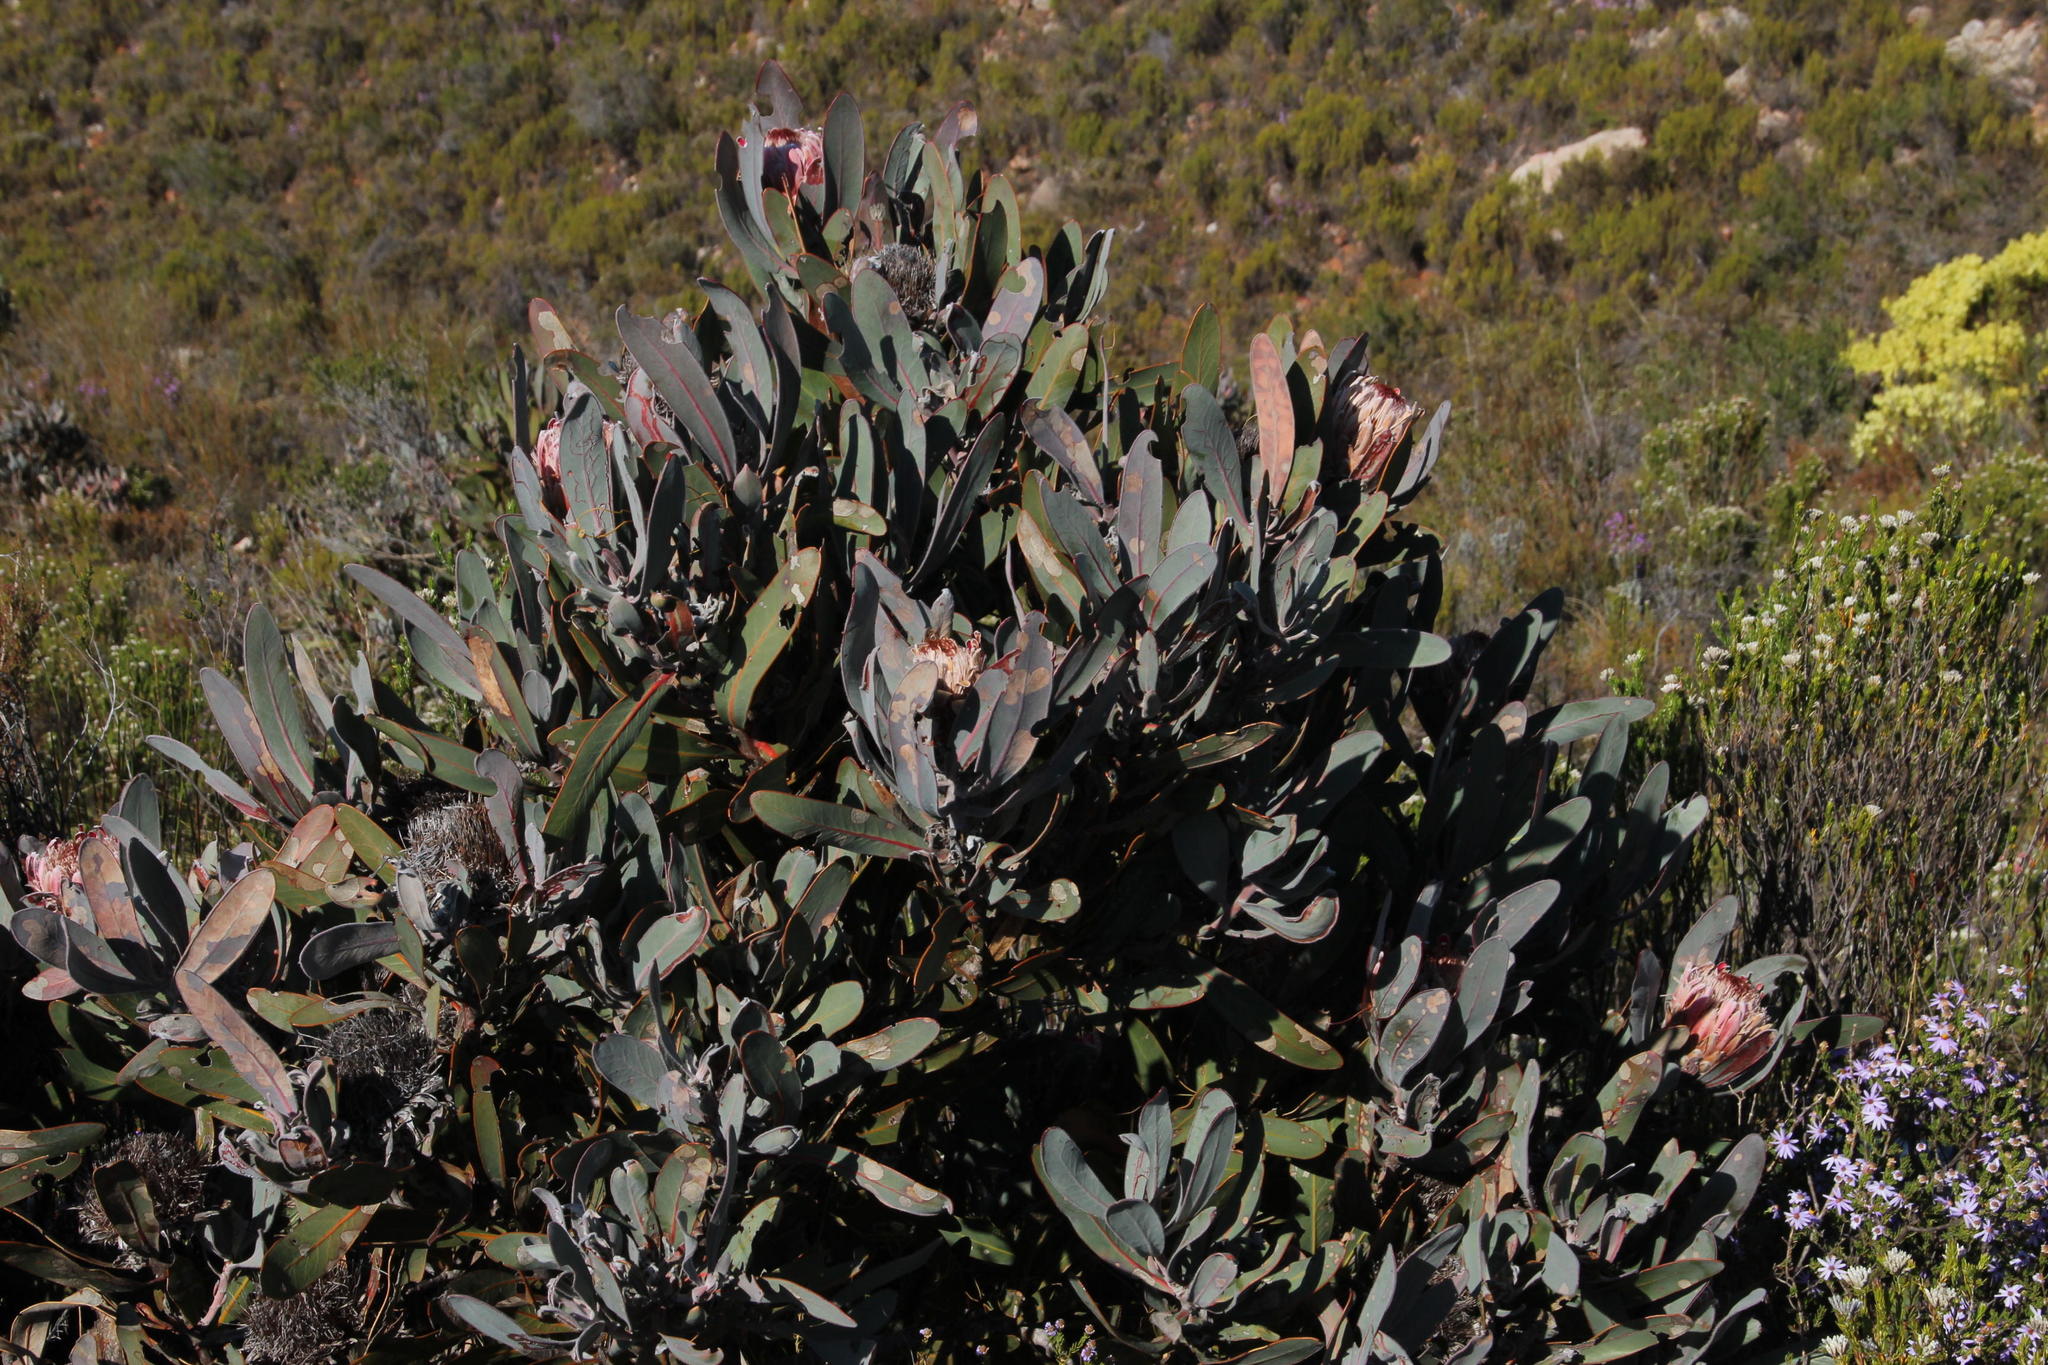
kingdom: Plantae
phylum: Tracheophyta
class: Magnoliopsida
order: Proteales
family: Proteaceae
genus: Protea
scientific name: Protea lorifolia
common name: Strap-leaved protea
